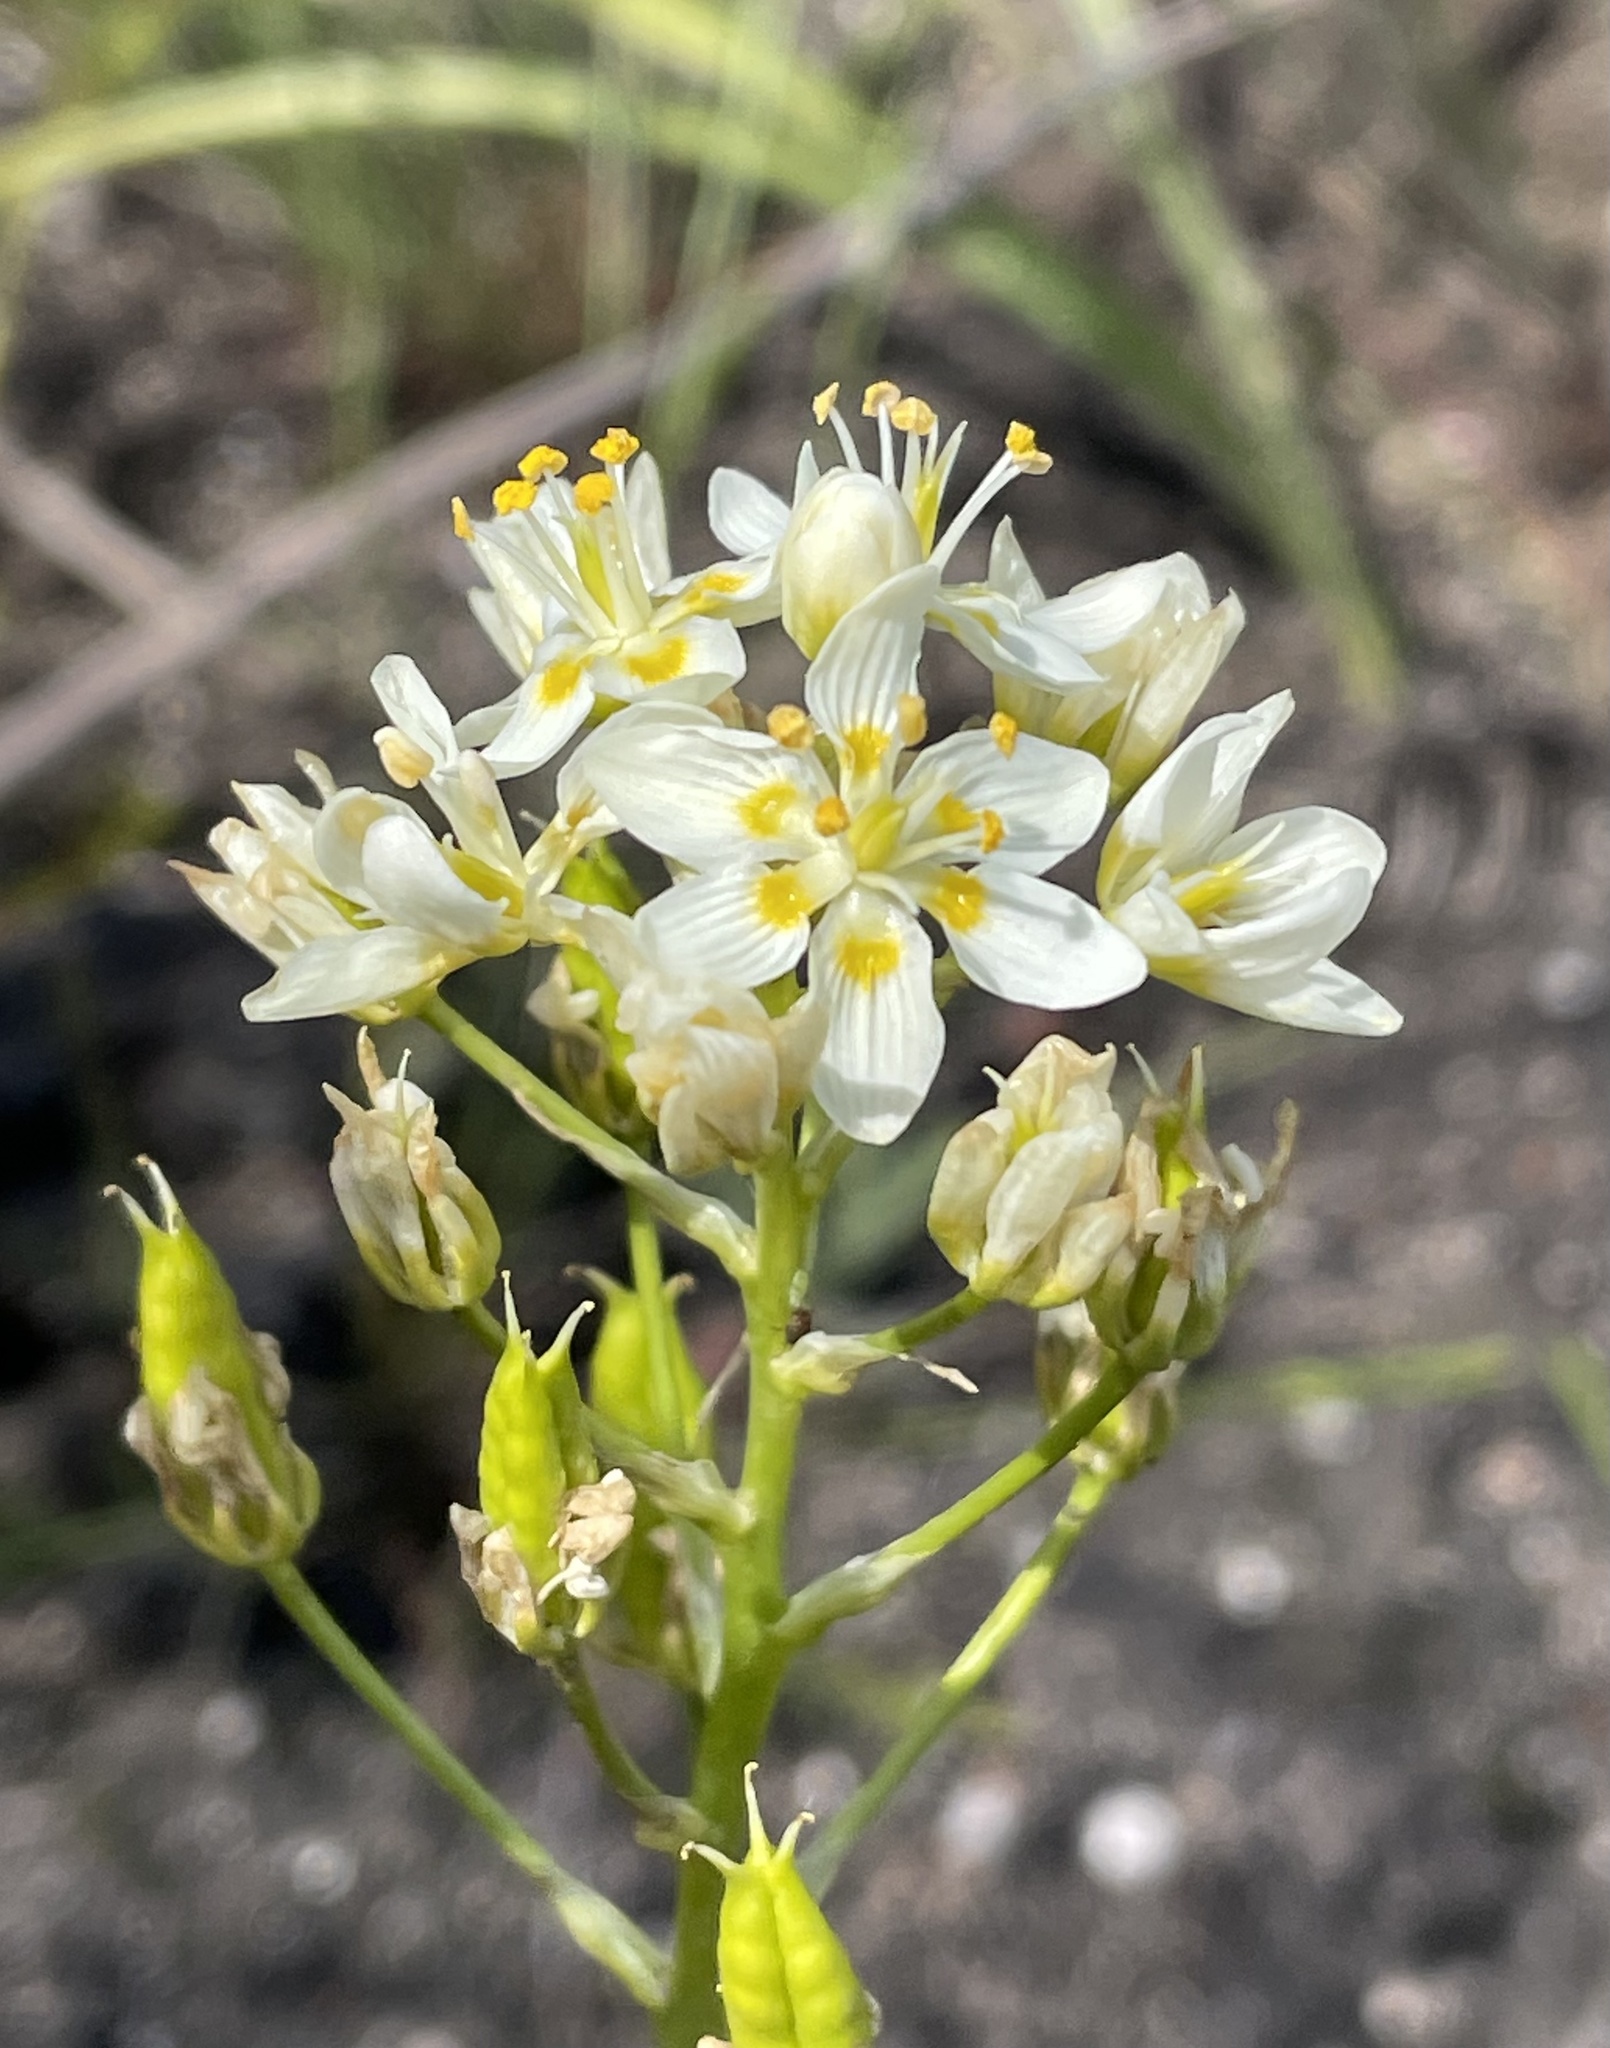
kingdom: Plantae
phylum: Tracheophyta
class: Liliopsida
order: Liliales
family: Melanthiaceae
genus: Toxicoscordion
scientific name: Toxicoscordion fremontii
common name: Fremont's death camas
